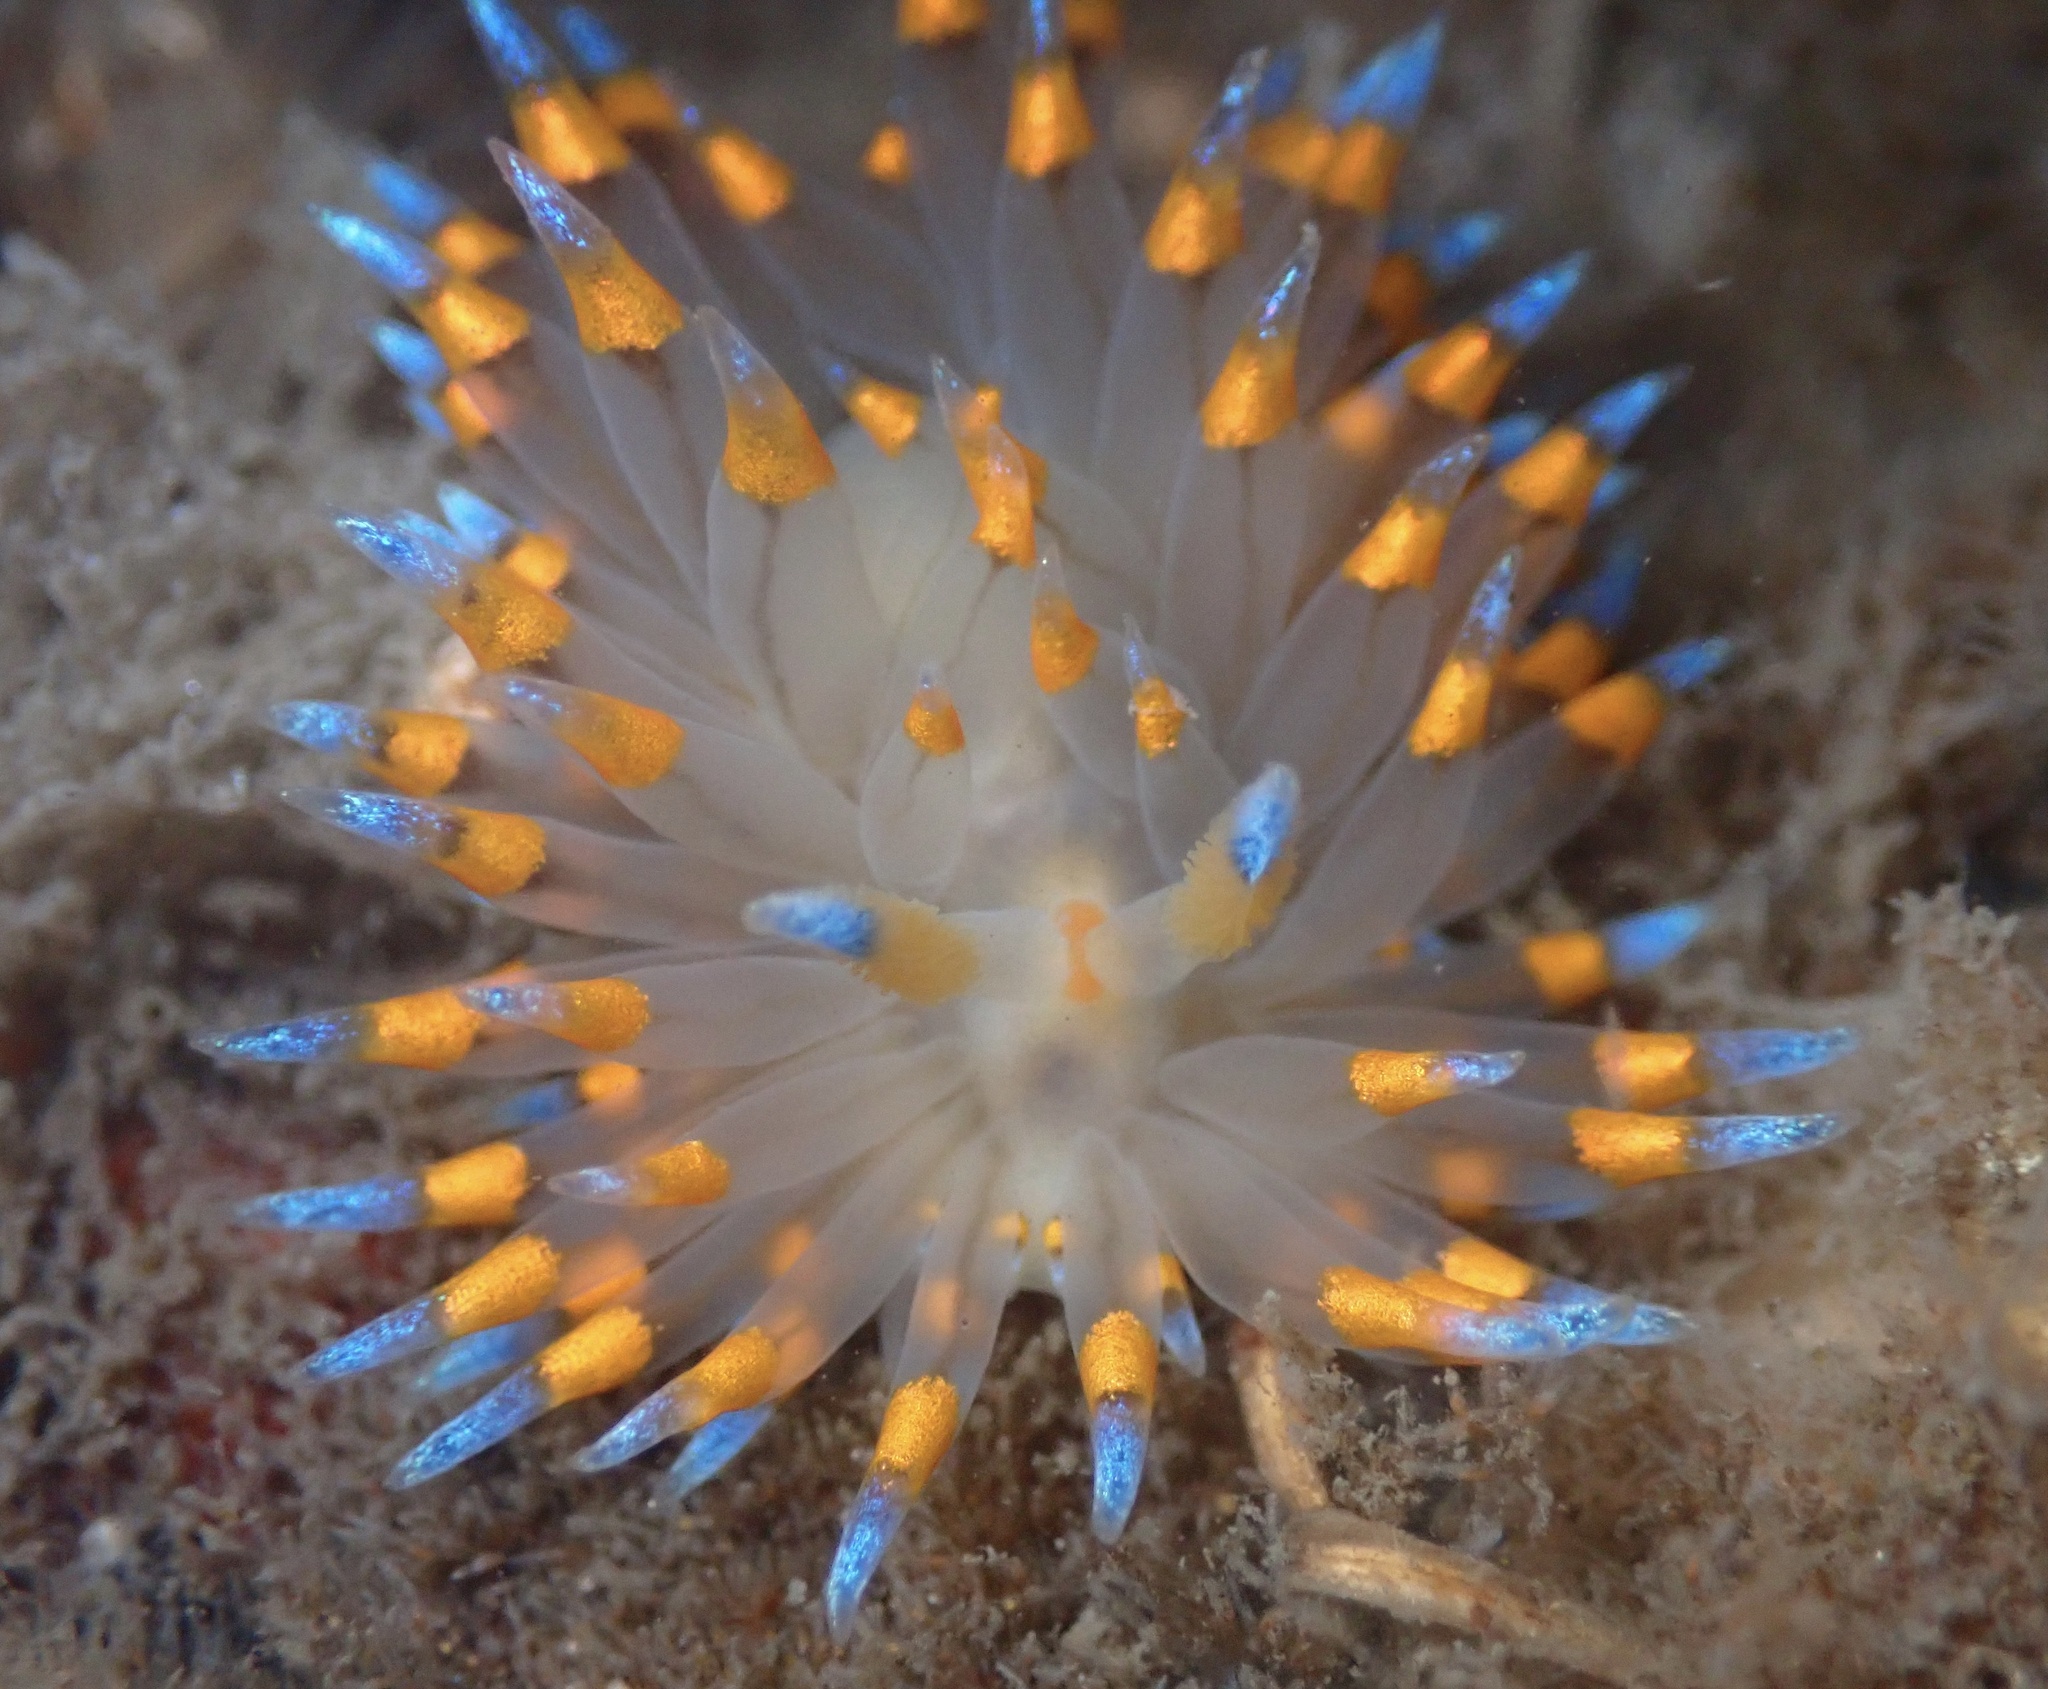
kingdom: Animalia
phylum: Mollusca
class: Gastropoda
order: Nudibranchia
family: Janolidae
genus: Antiopella
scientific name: Antiopella barbarensis
